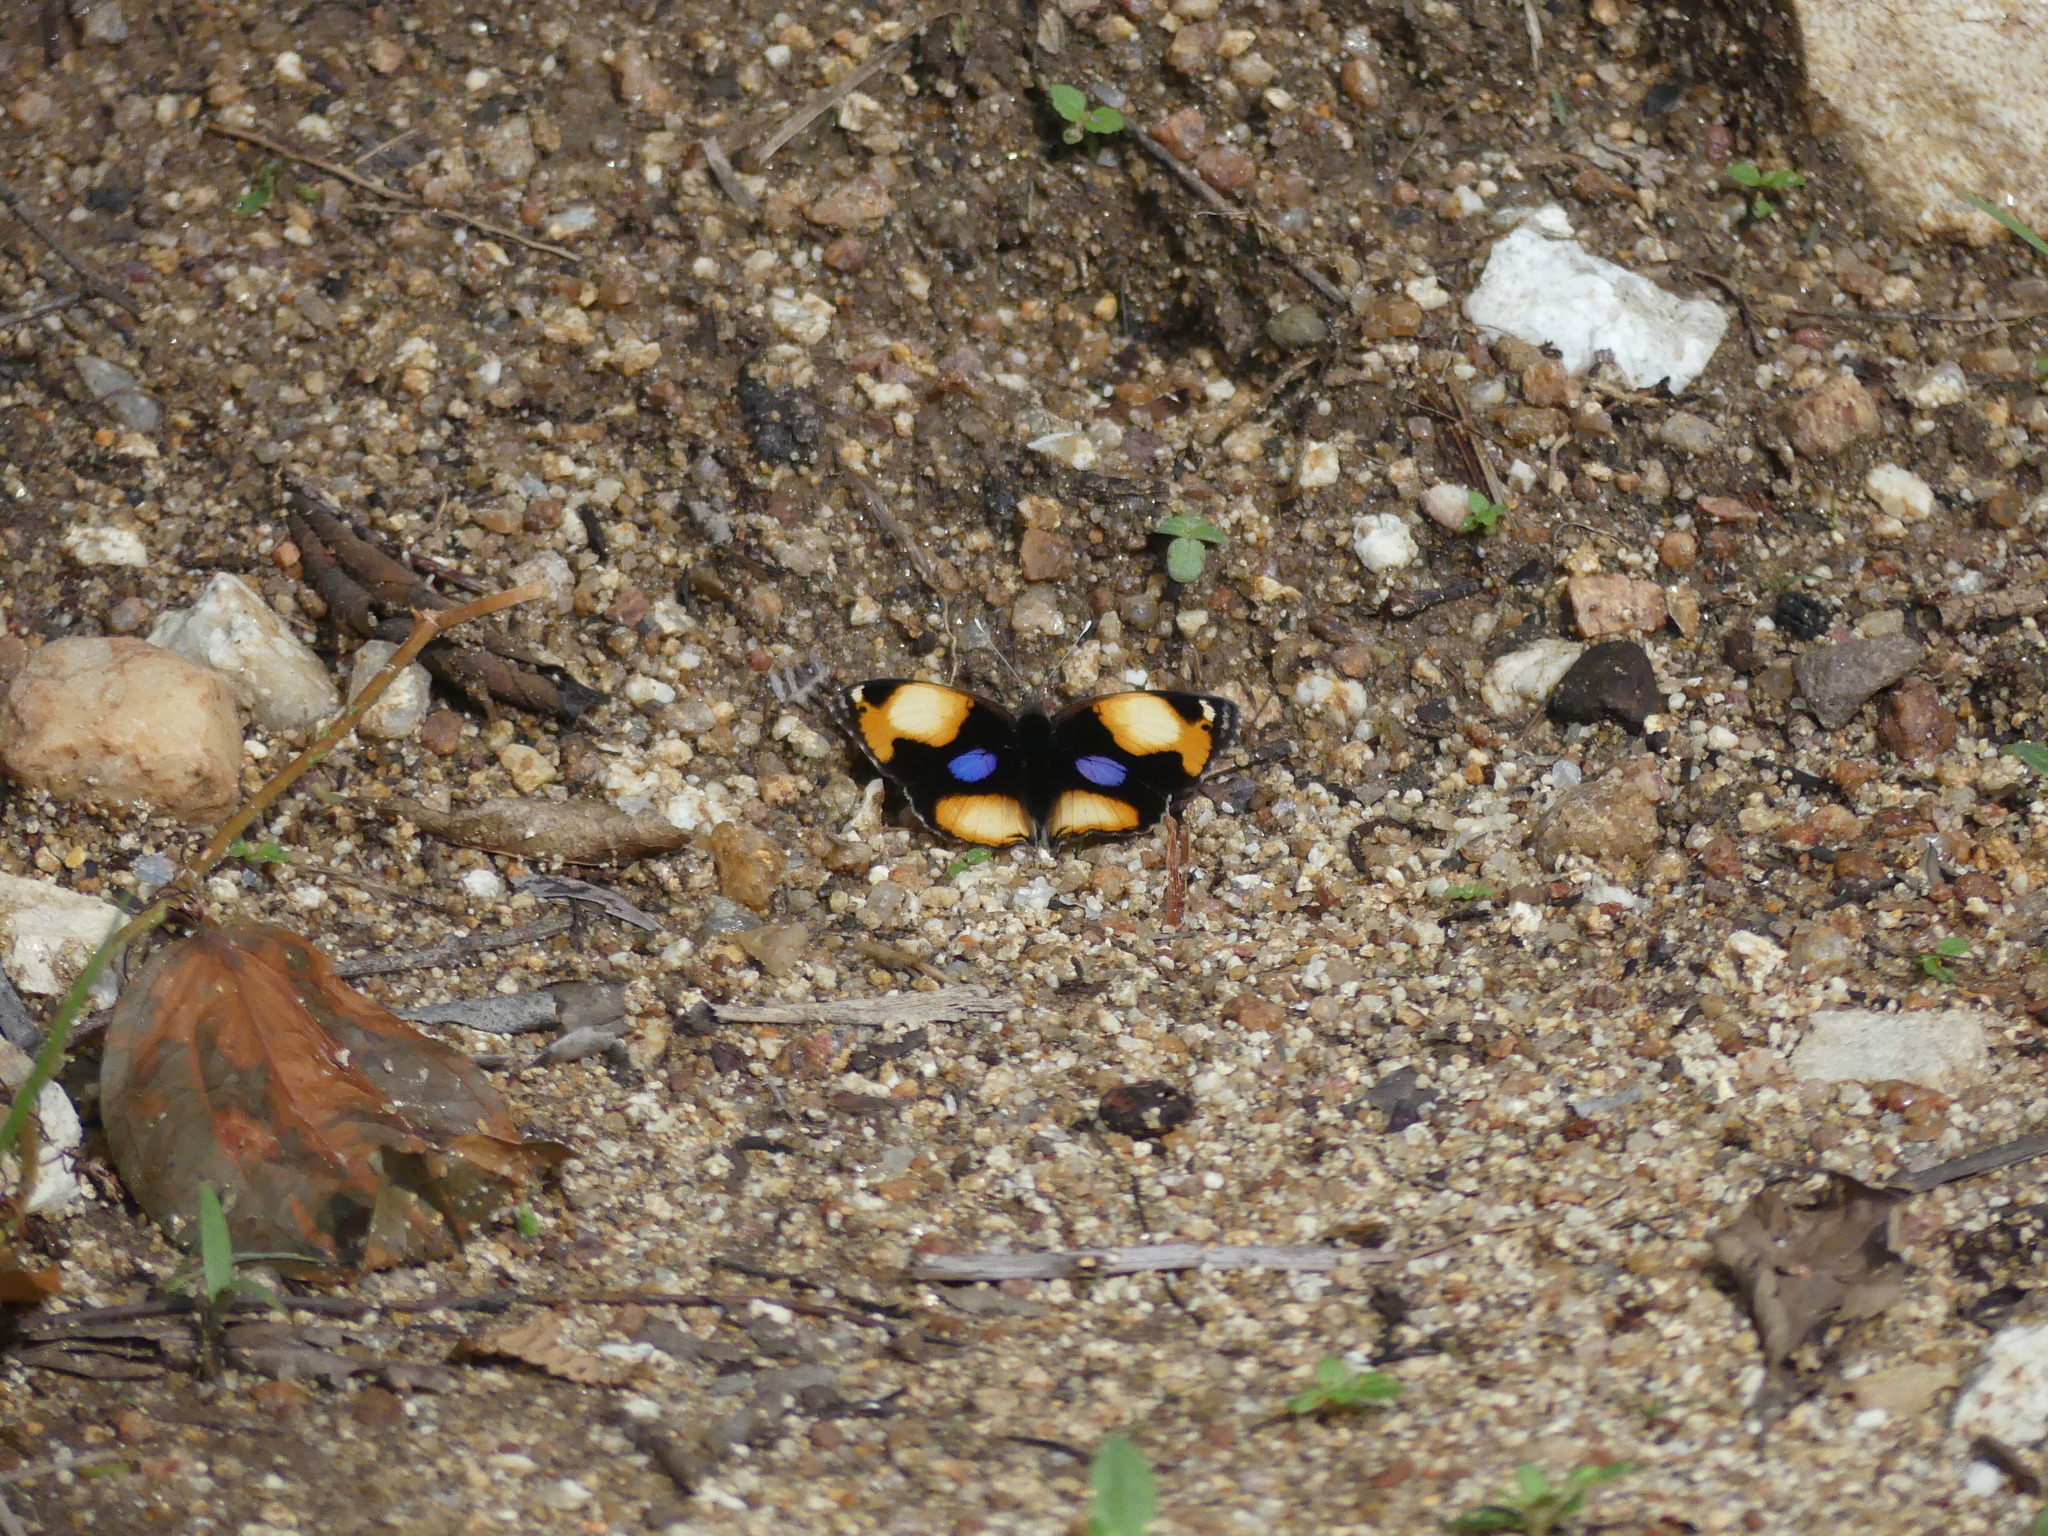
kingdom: Animalia
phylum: Arthropoda
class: Insecta
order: Lepidoptera
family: Nymphalidae
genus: Junonia
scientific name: Junonia hierta
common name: Yellow pansy
